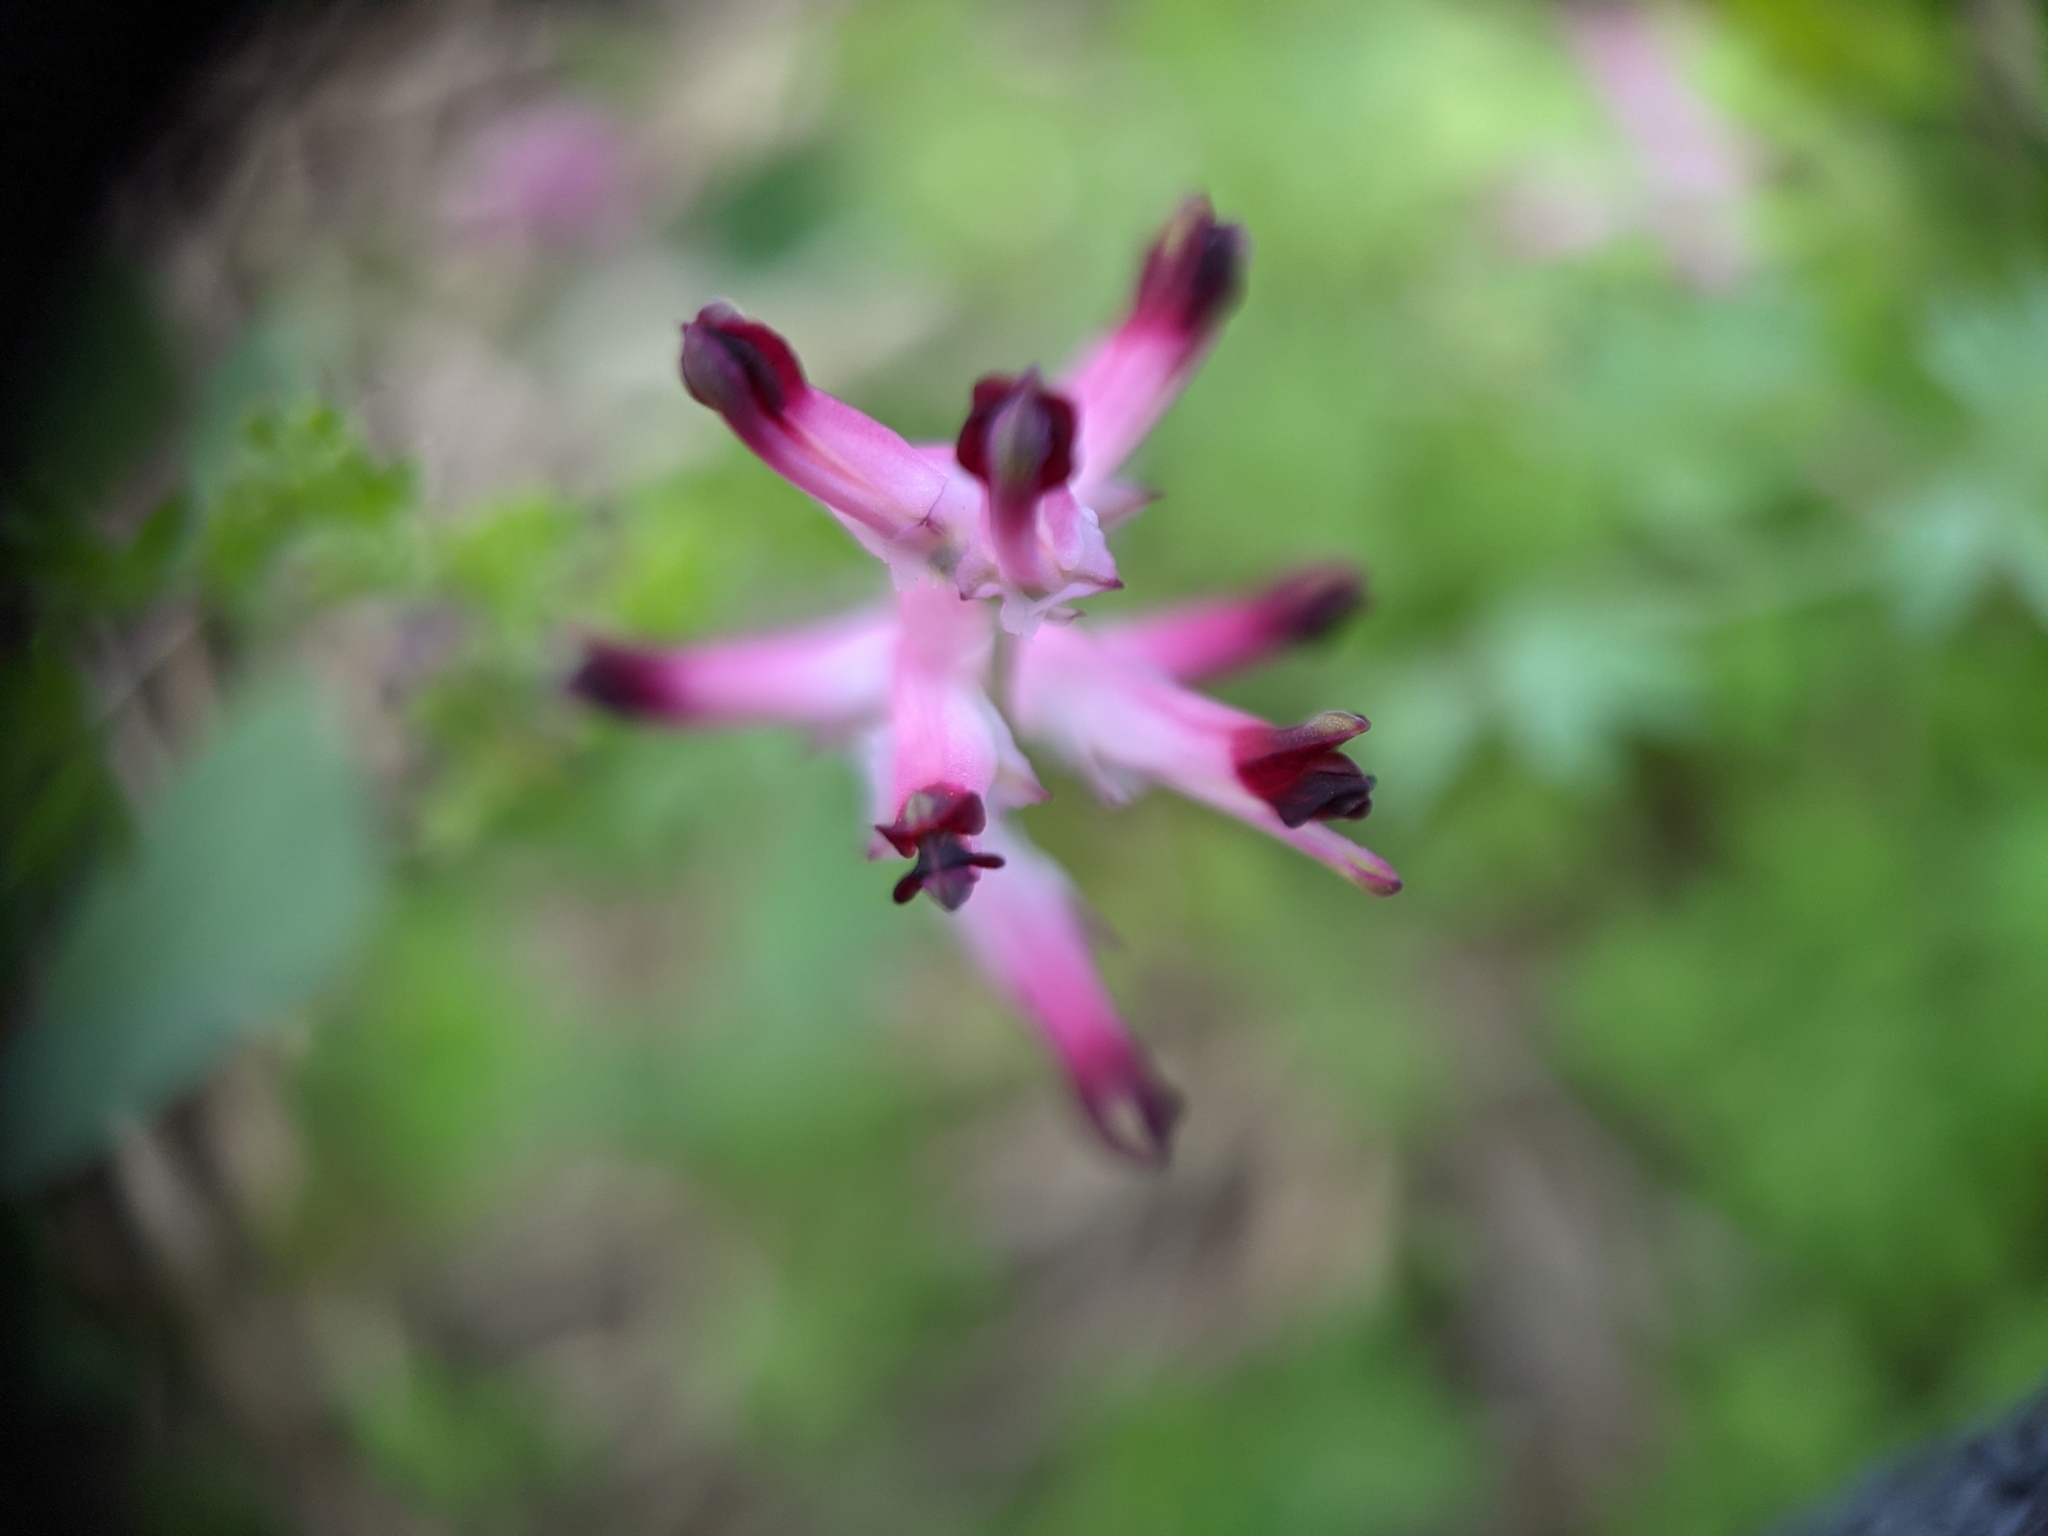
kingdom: Plantae
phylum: Tracheophyta
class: Magnoliopsida
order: Ranunculales
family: Papaveraceae
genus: Fumaria
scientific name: Fumaria muralis
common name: Common ramping-fumitory
